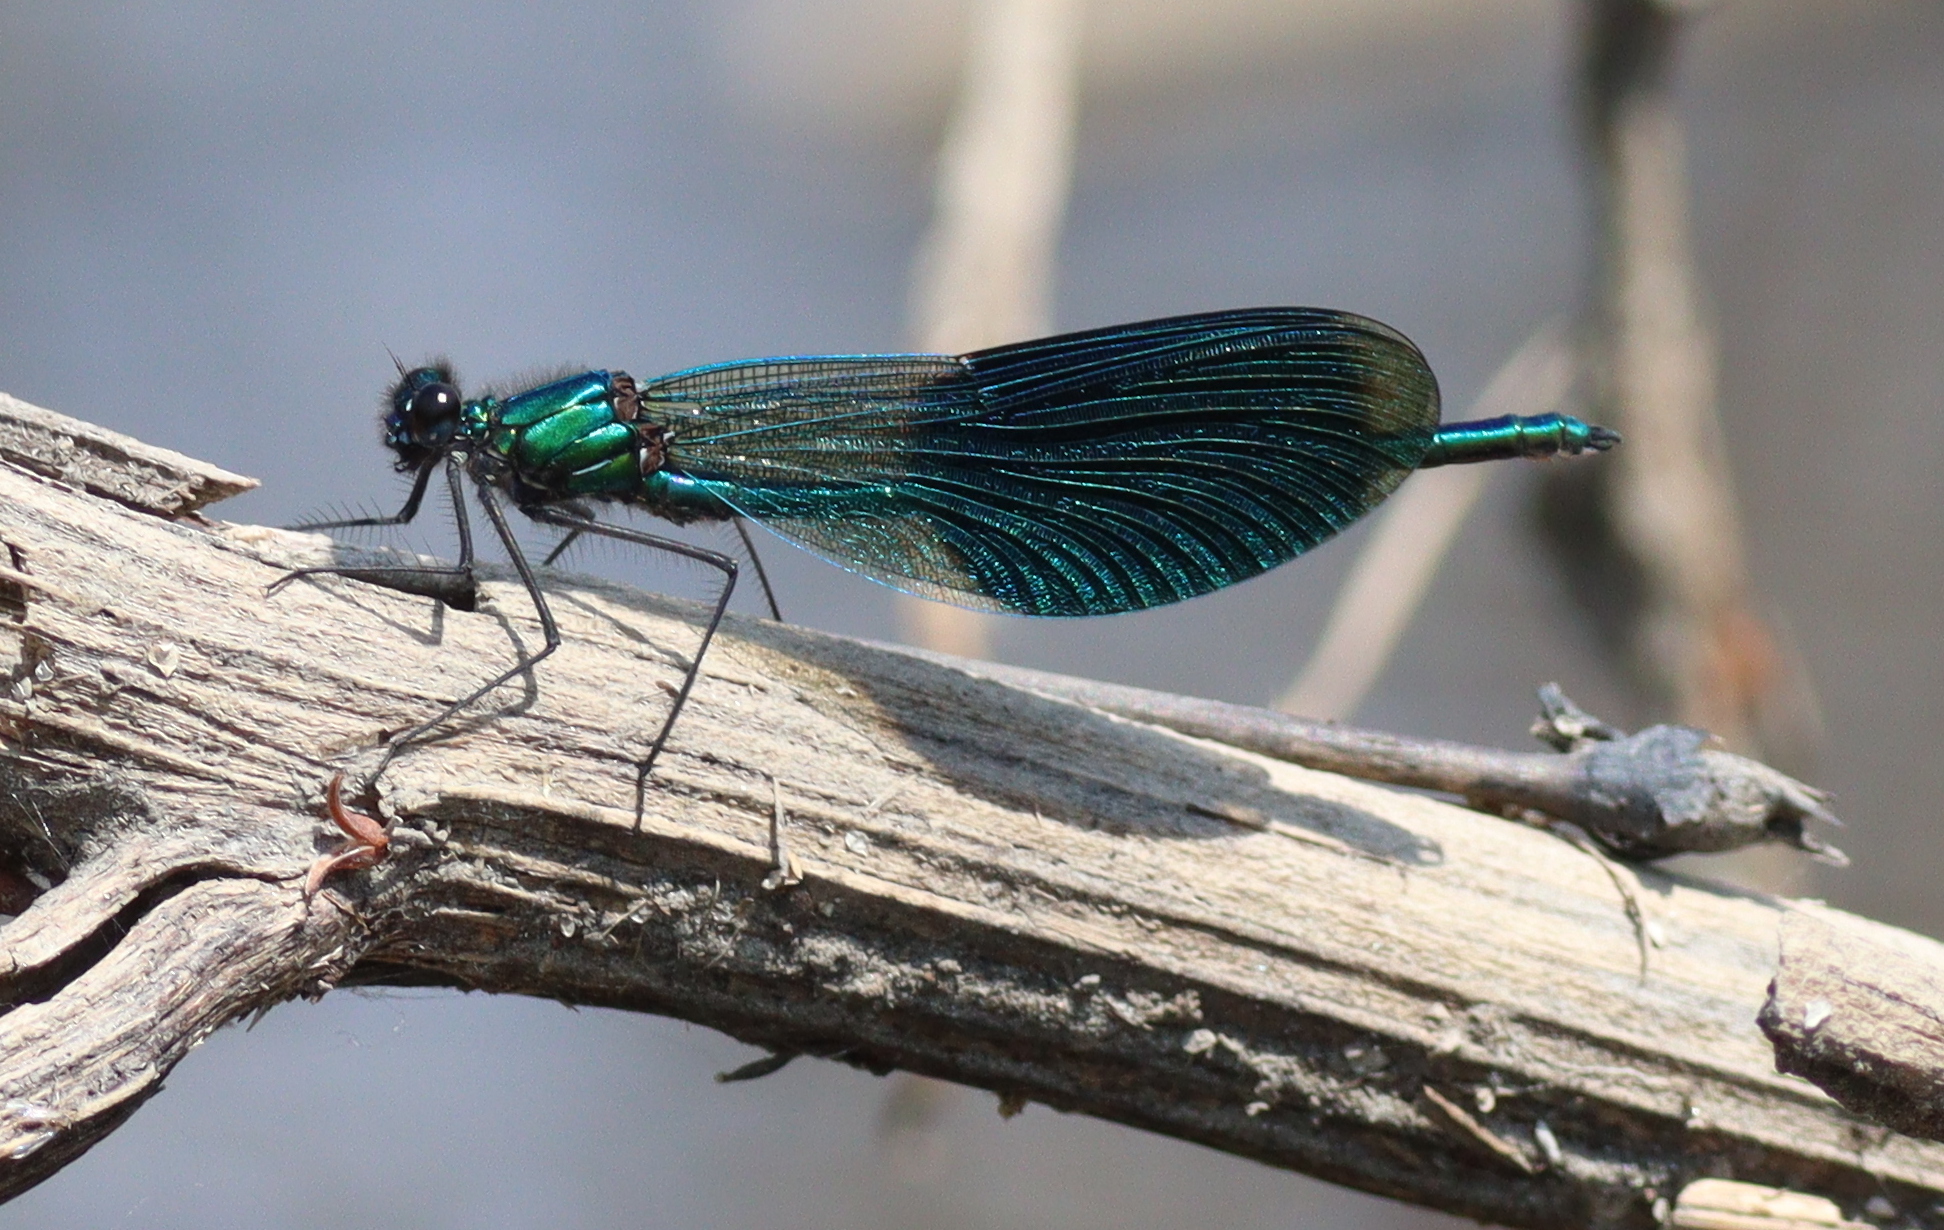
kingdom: Animalia
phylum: Arthropoda
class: Insecta
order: Odonata
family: Calopterygidae
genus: Calopteryx
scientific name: Calopteryx splendens
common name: Banded demoiselle
